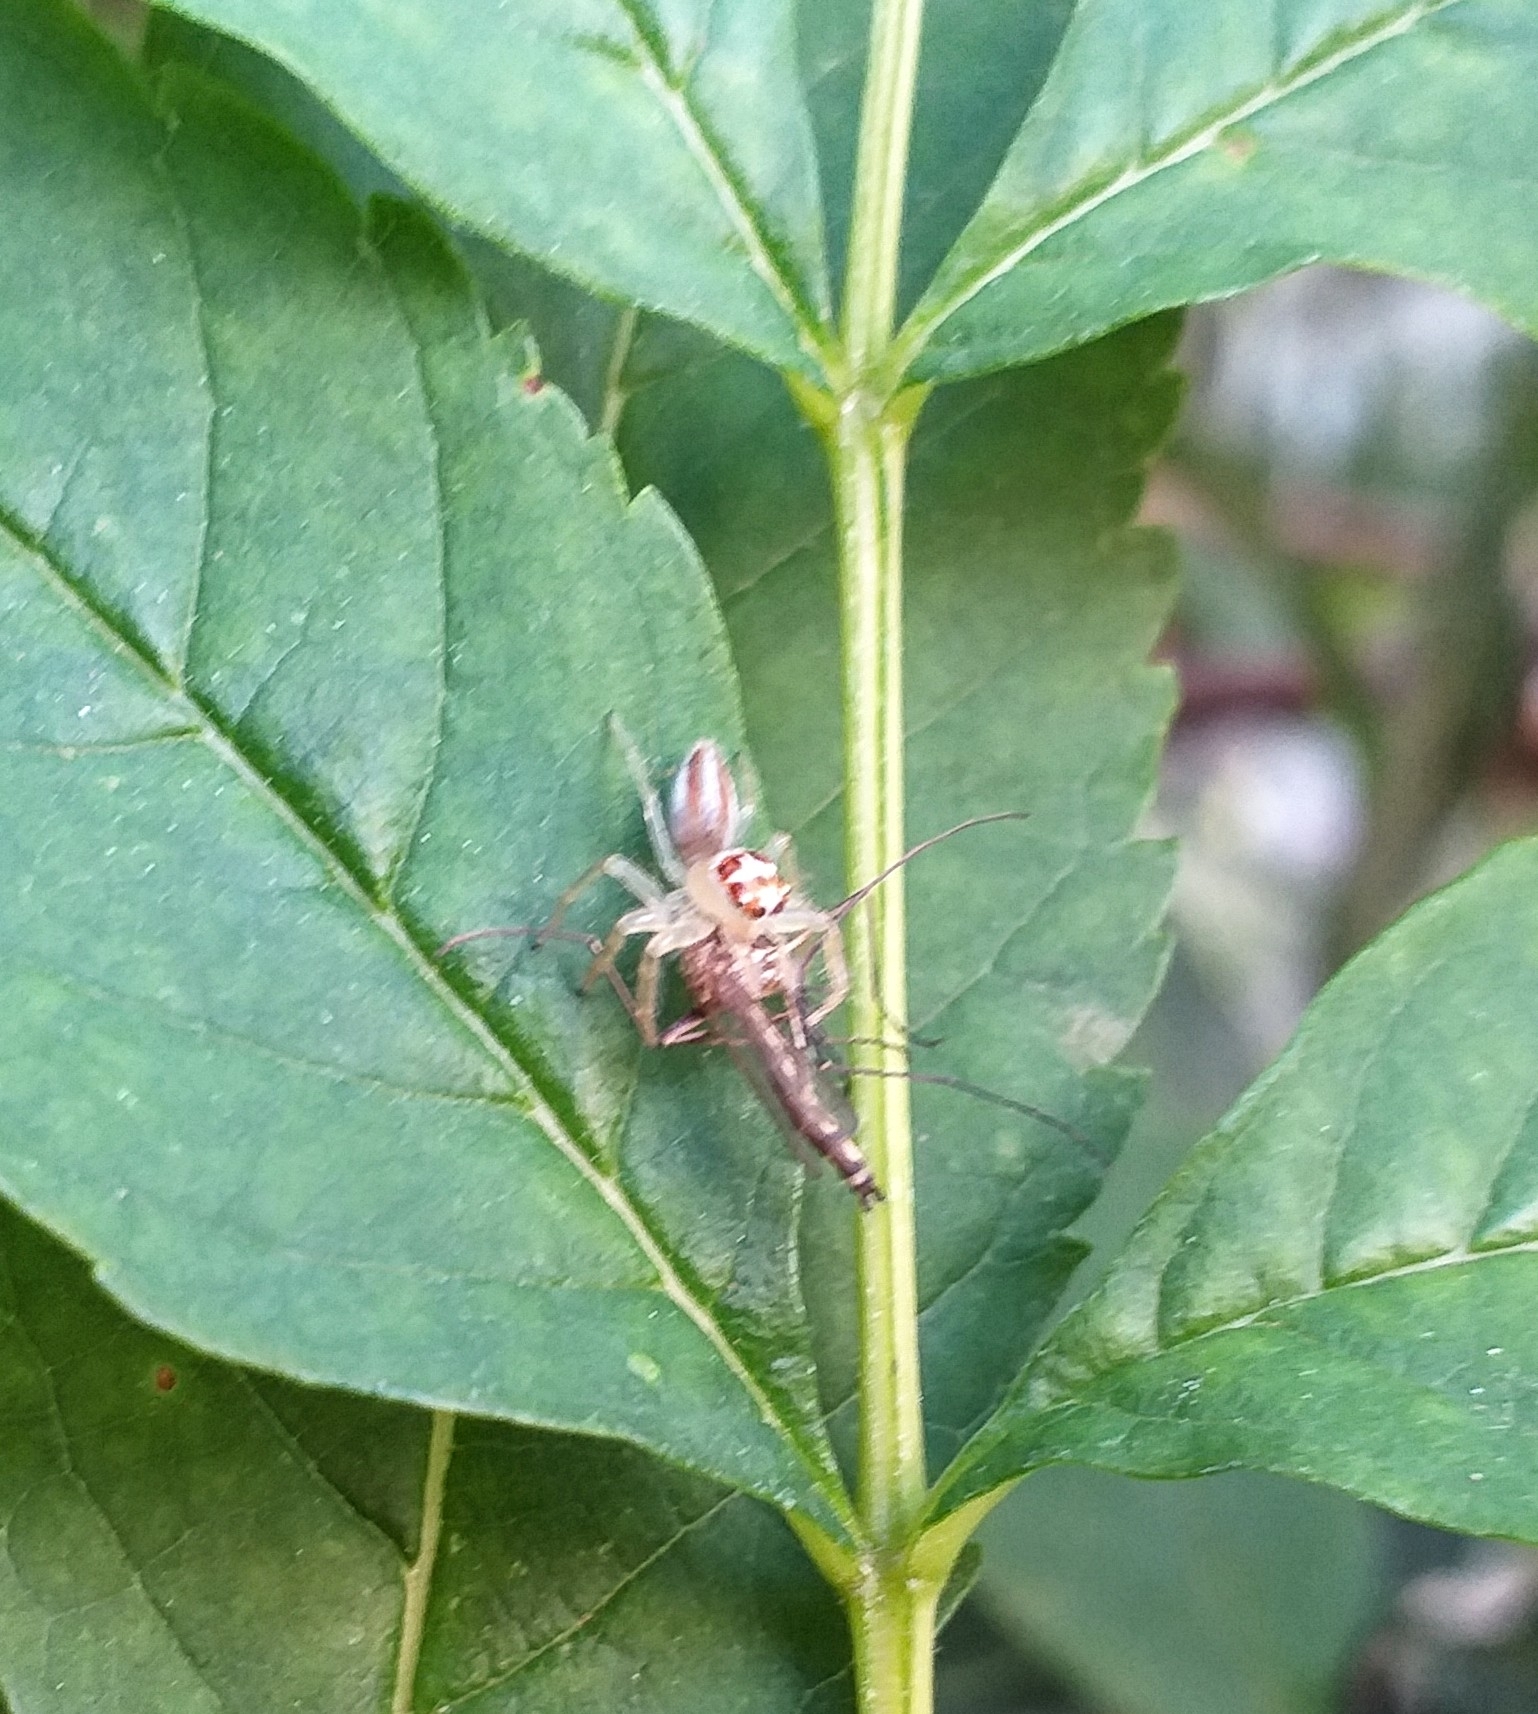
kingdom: Animalia
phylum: Arthropoda
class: Arachnida
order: Araneae
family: Salticidae
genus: Telamonia
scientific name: Telamonia dimidiata
